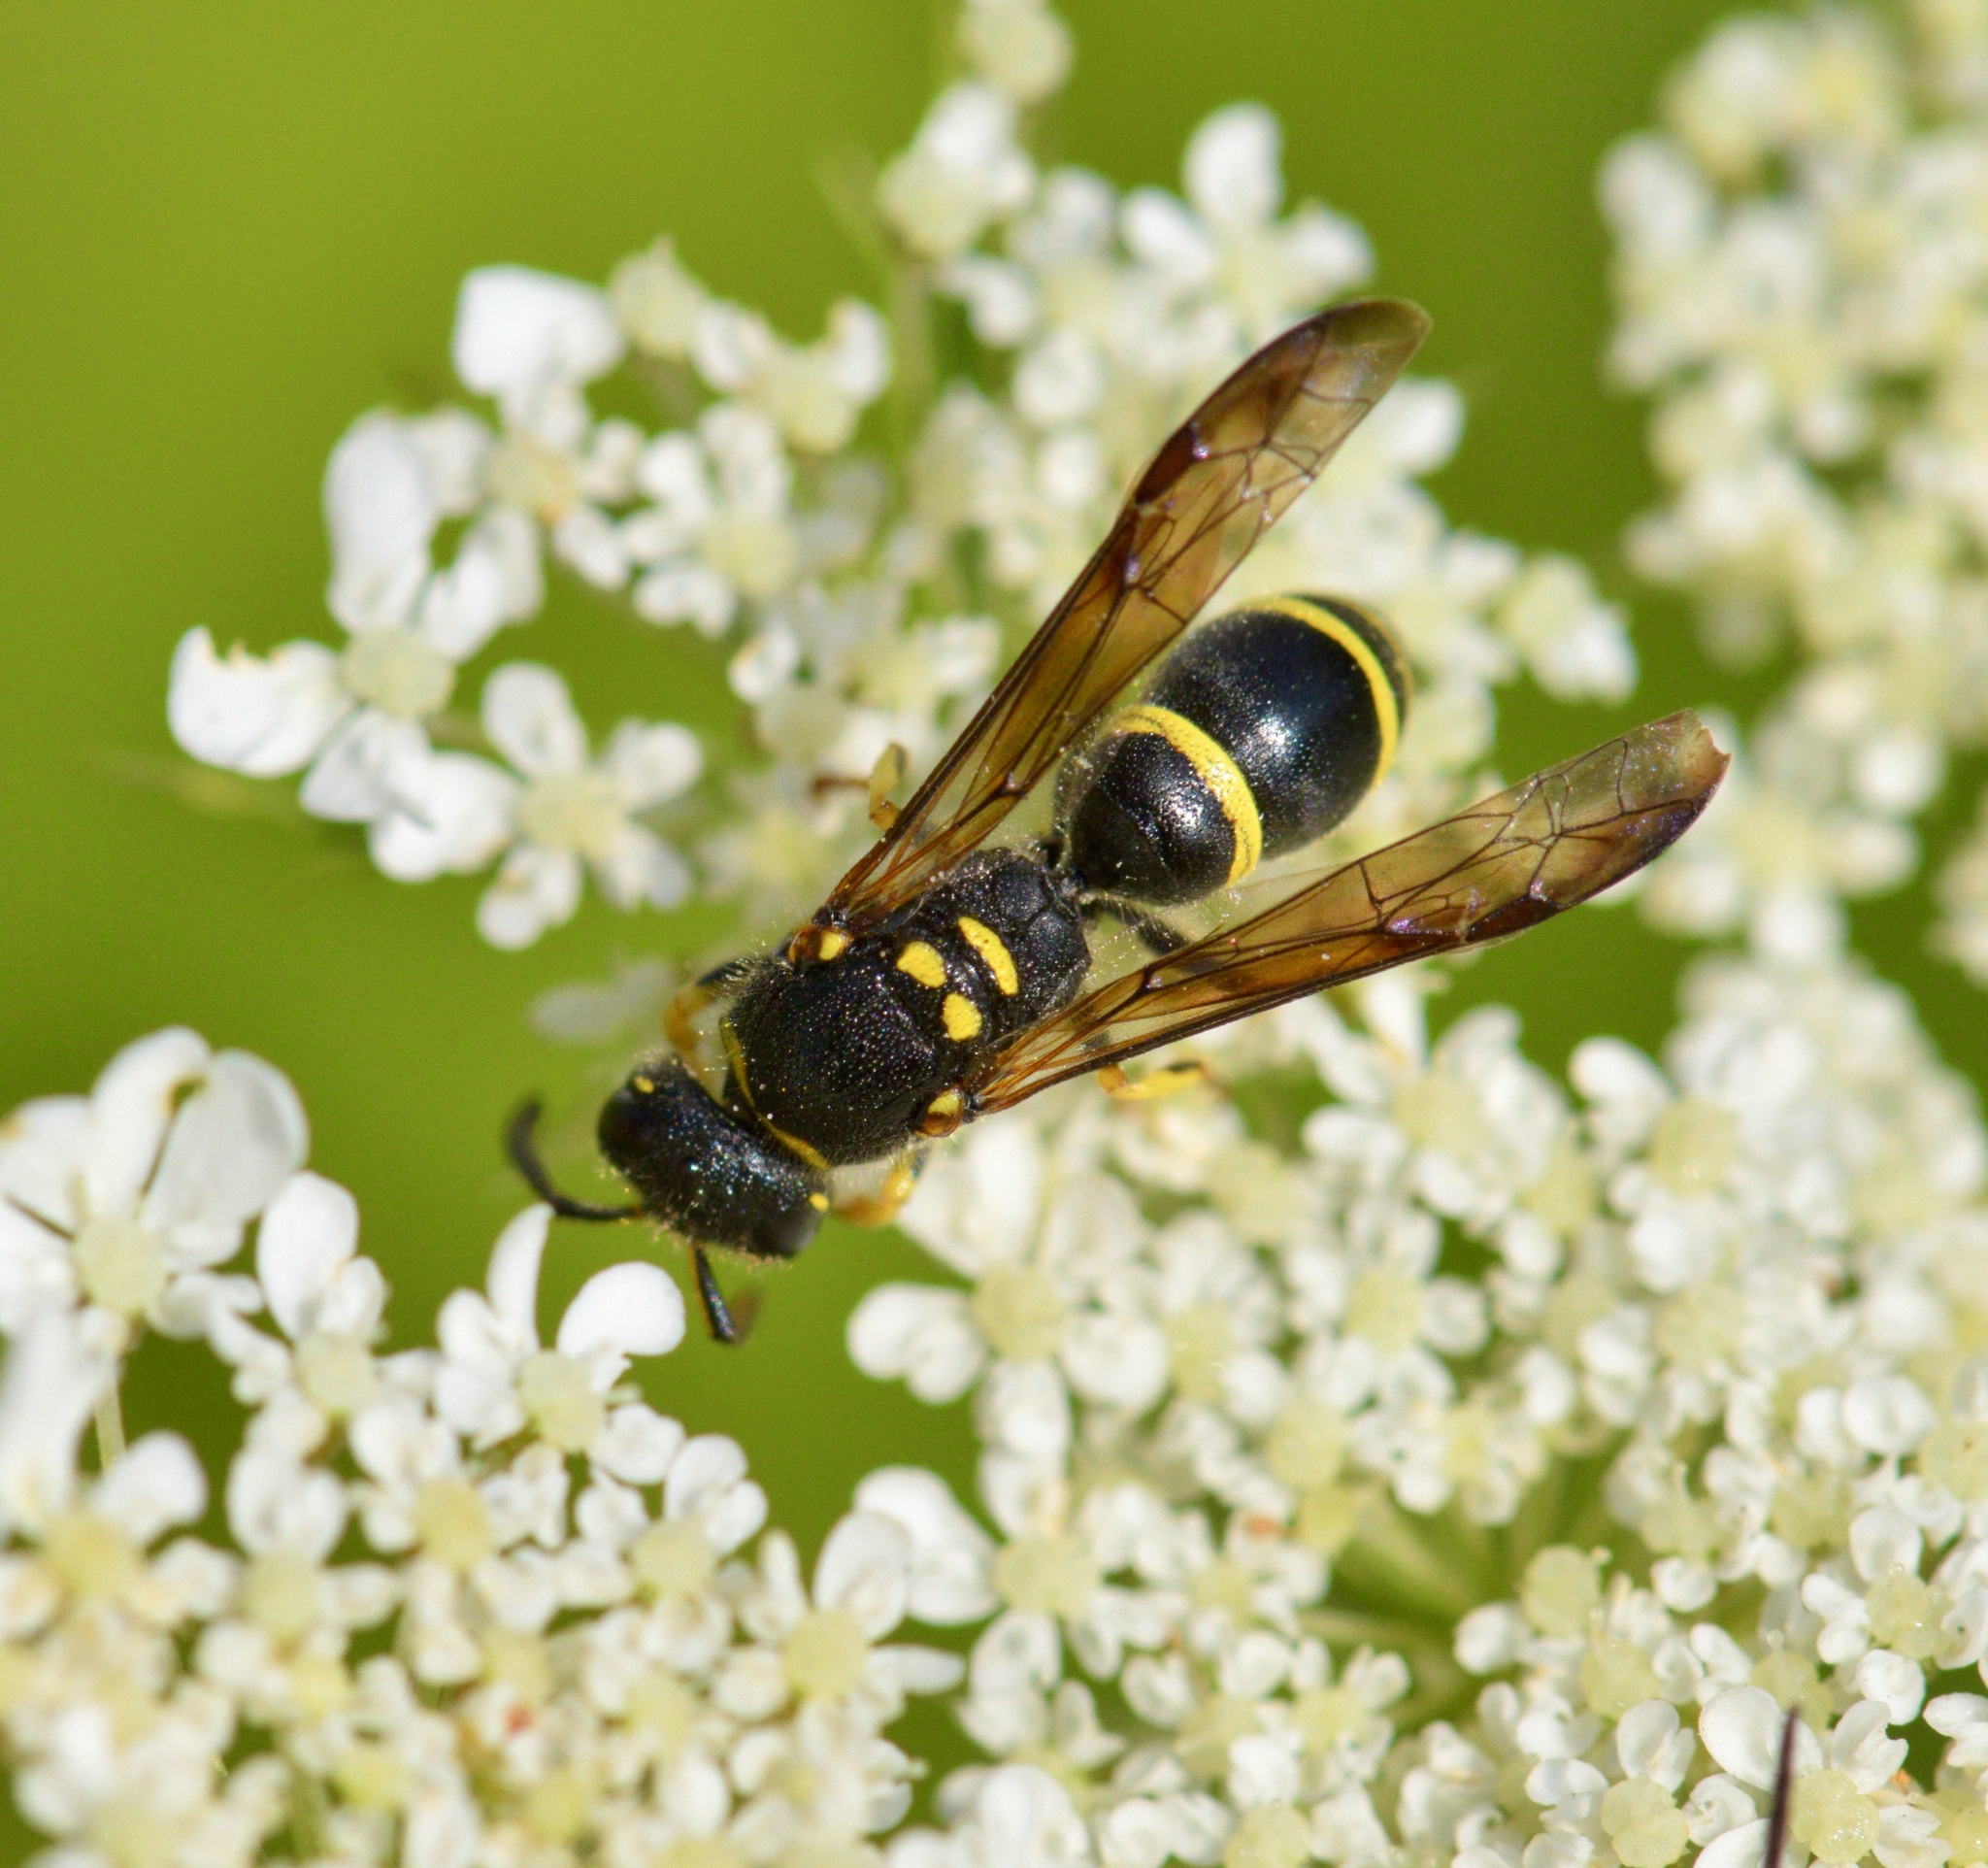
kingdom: Animalia
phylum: Arthropoda
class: Insecta
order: Hymenoptera
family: Vespidae
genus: Ancistrocerus
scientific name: Ancistrocerus adiabatus
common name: Bramble mason wasp
